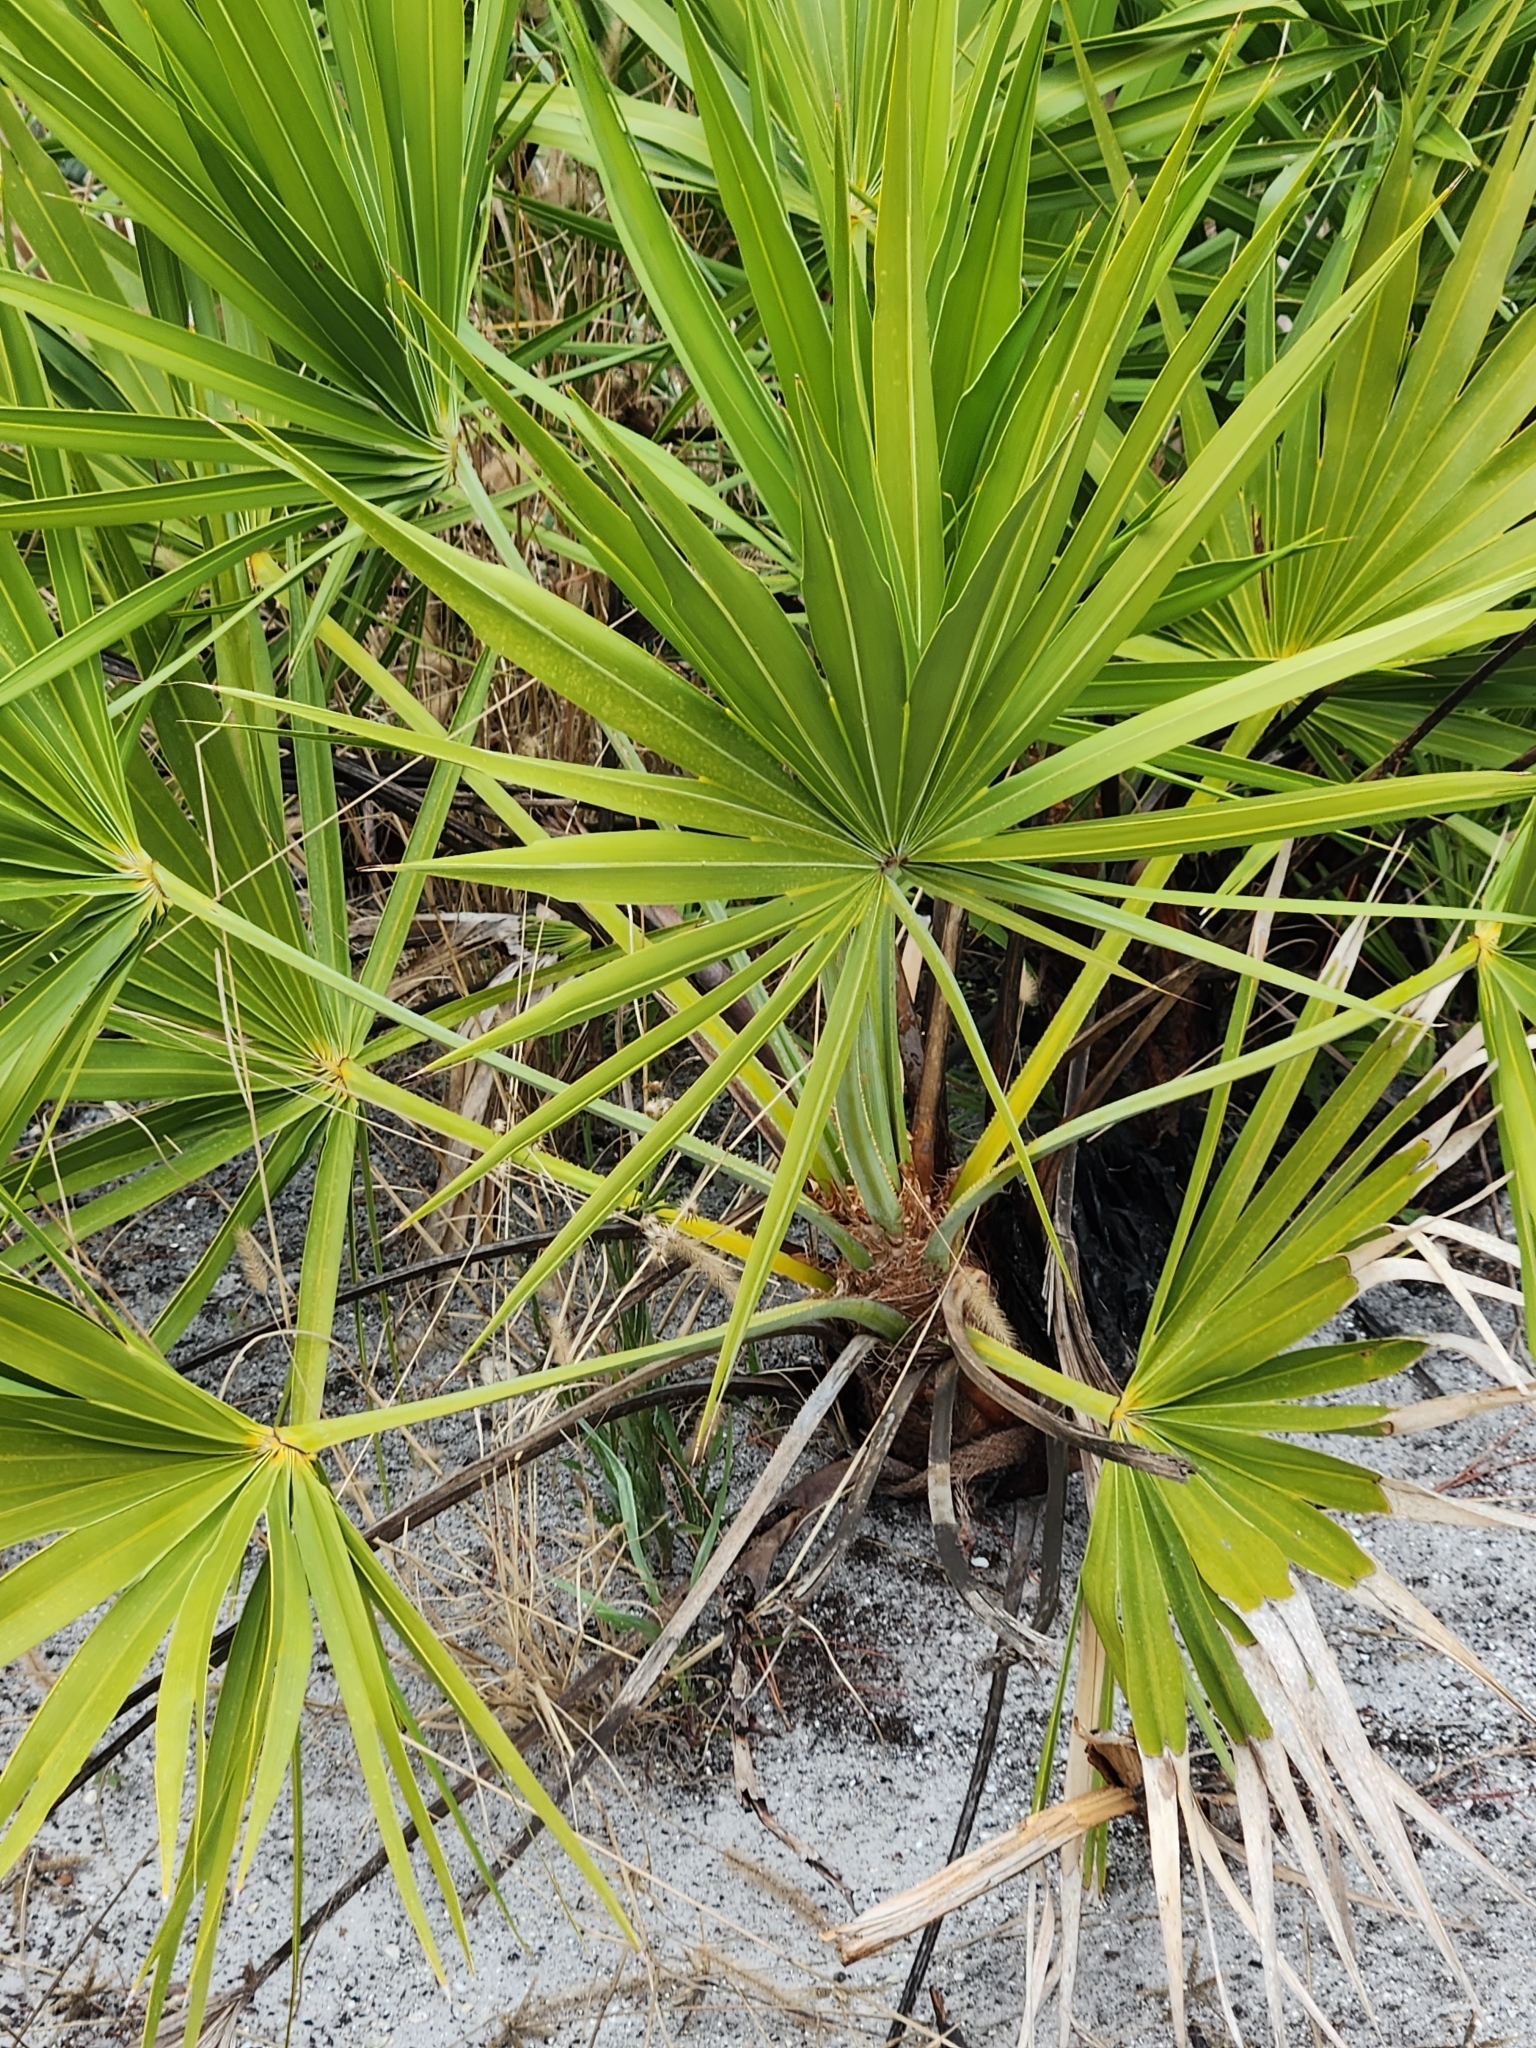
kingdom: Plantae
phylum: Tracheophyta
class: Liliopsida
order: Arecales
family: Arecaceae
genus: Serenoa
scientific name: Serenoa repens
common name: Saw-palmetto
